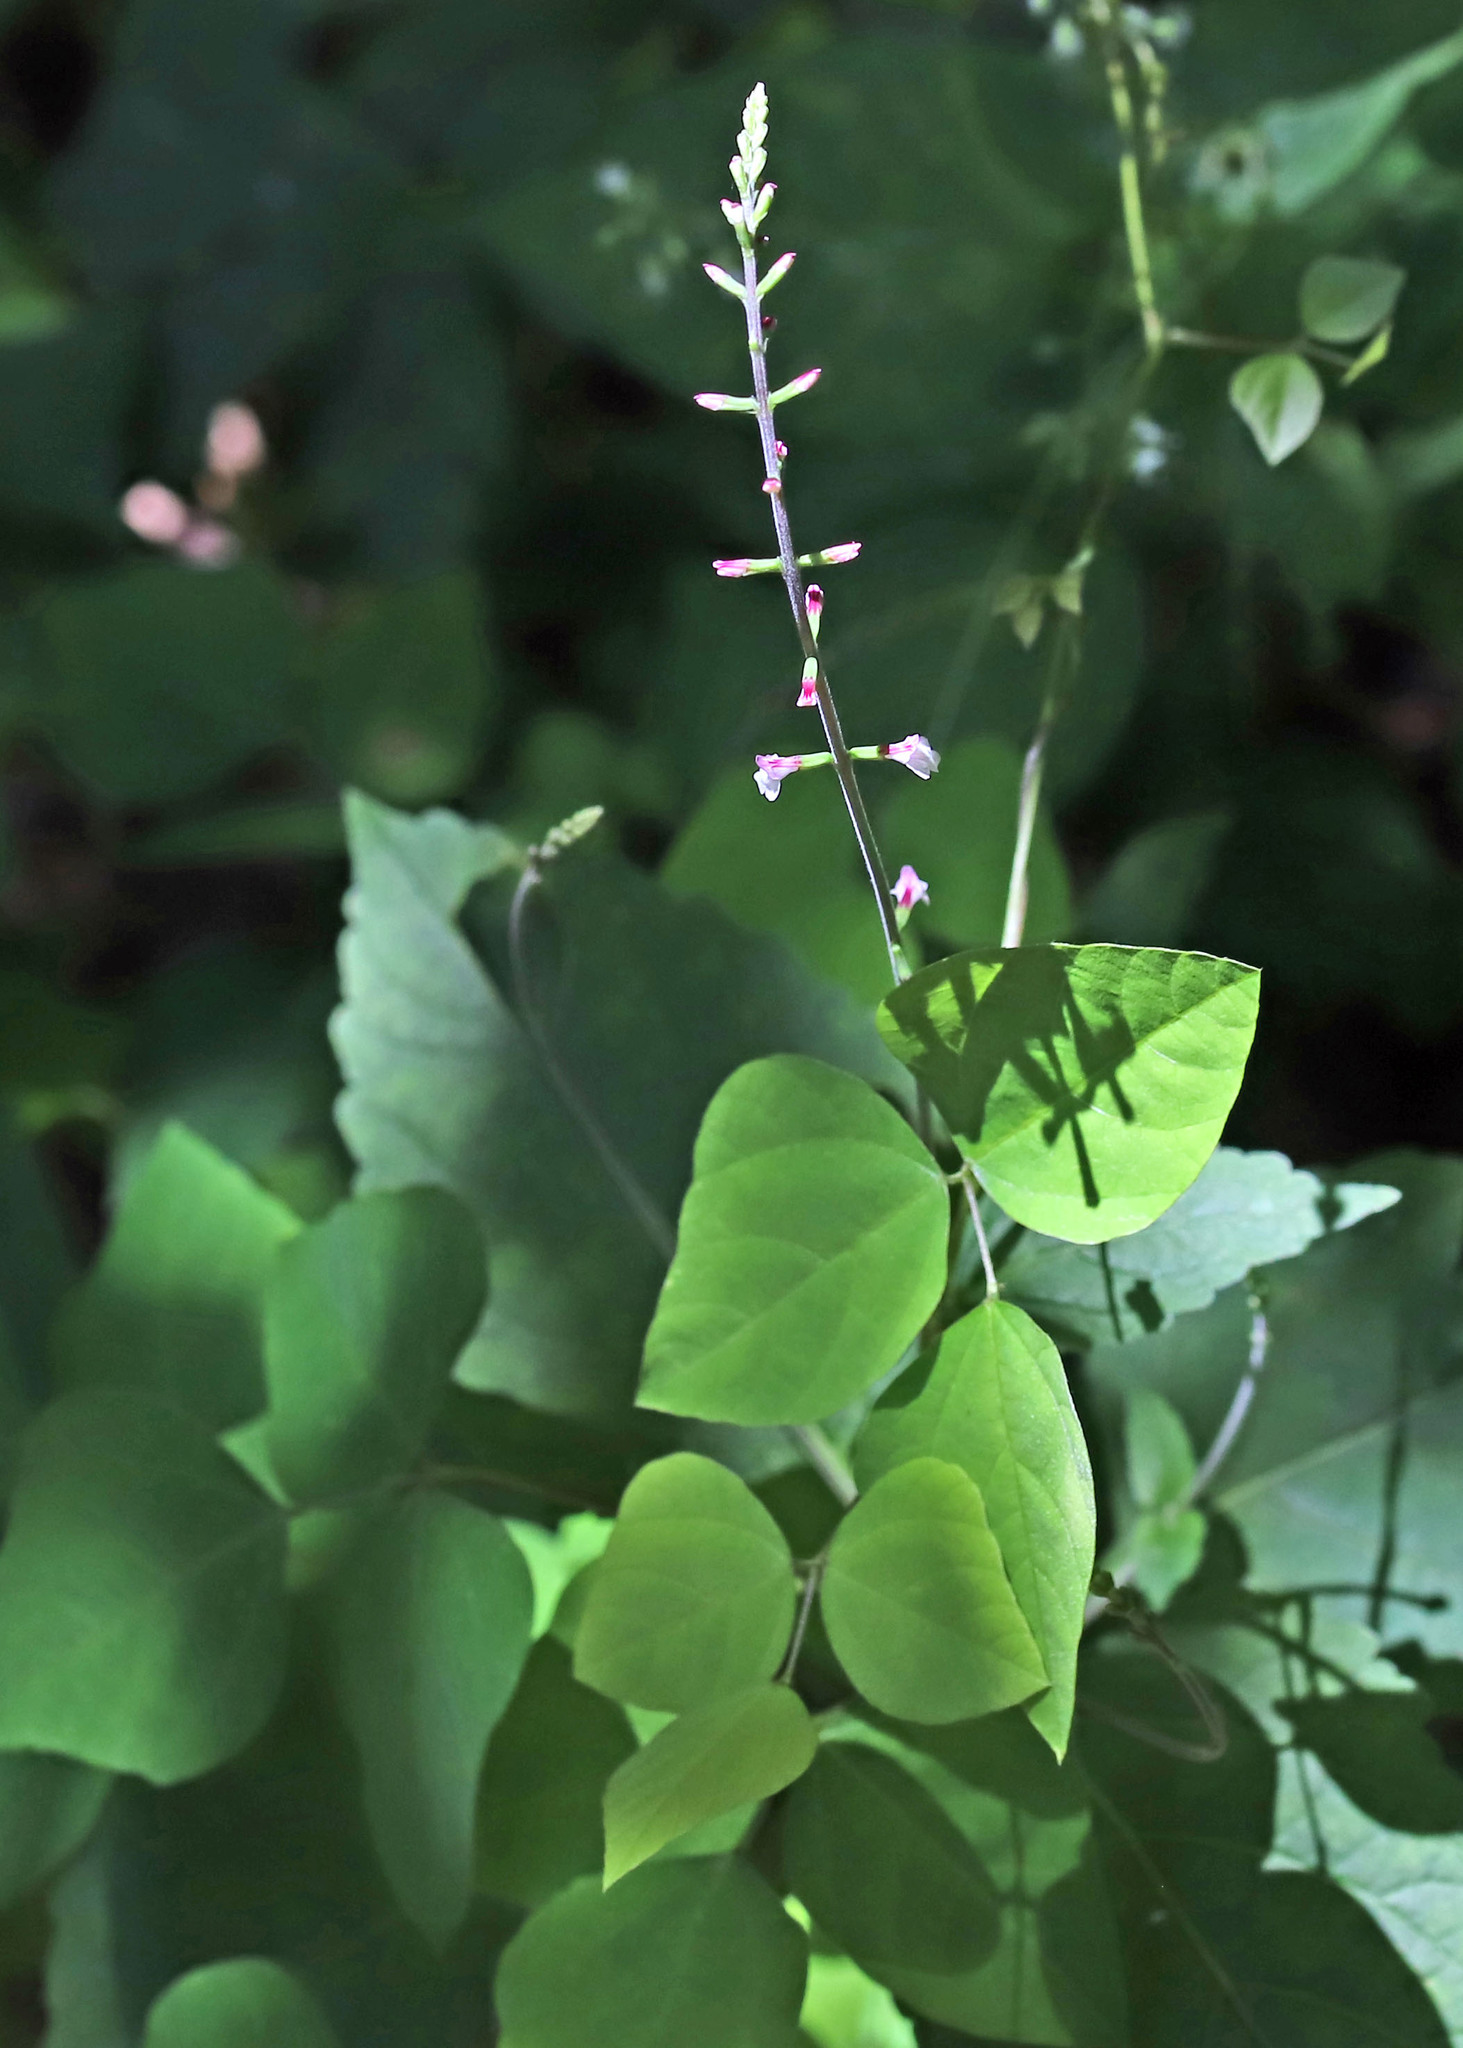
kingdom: Plantae
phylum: Tracheophyta
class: Magnoliopsida
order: Lamiales
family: Phrymaceae
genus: Phryma
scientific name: Phryma leptostachya
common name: American lopseed
